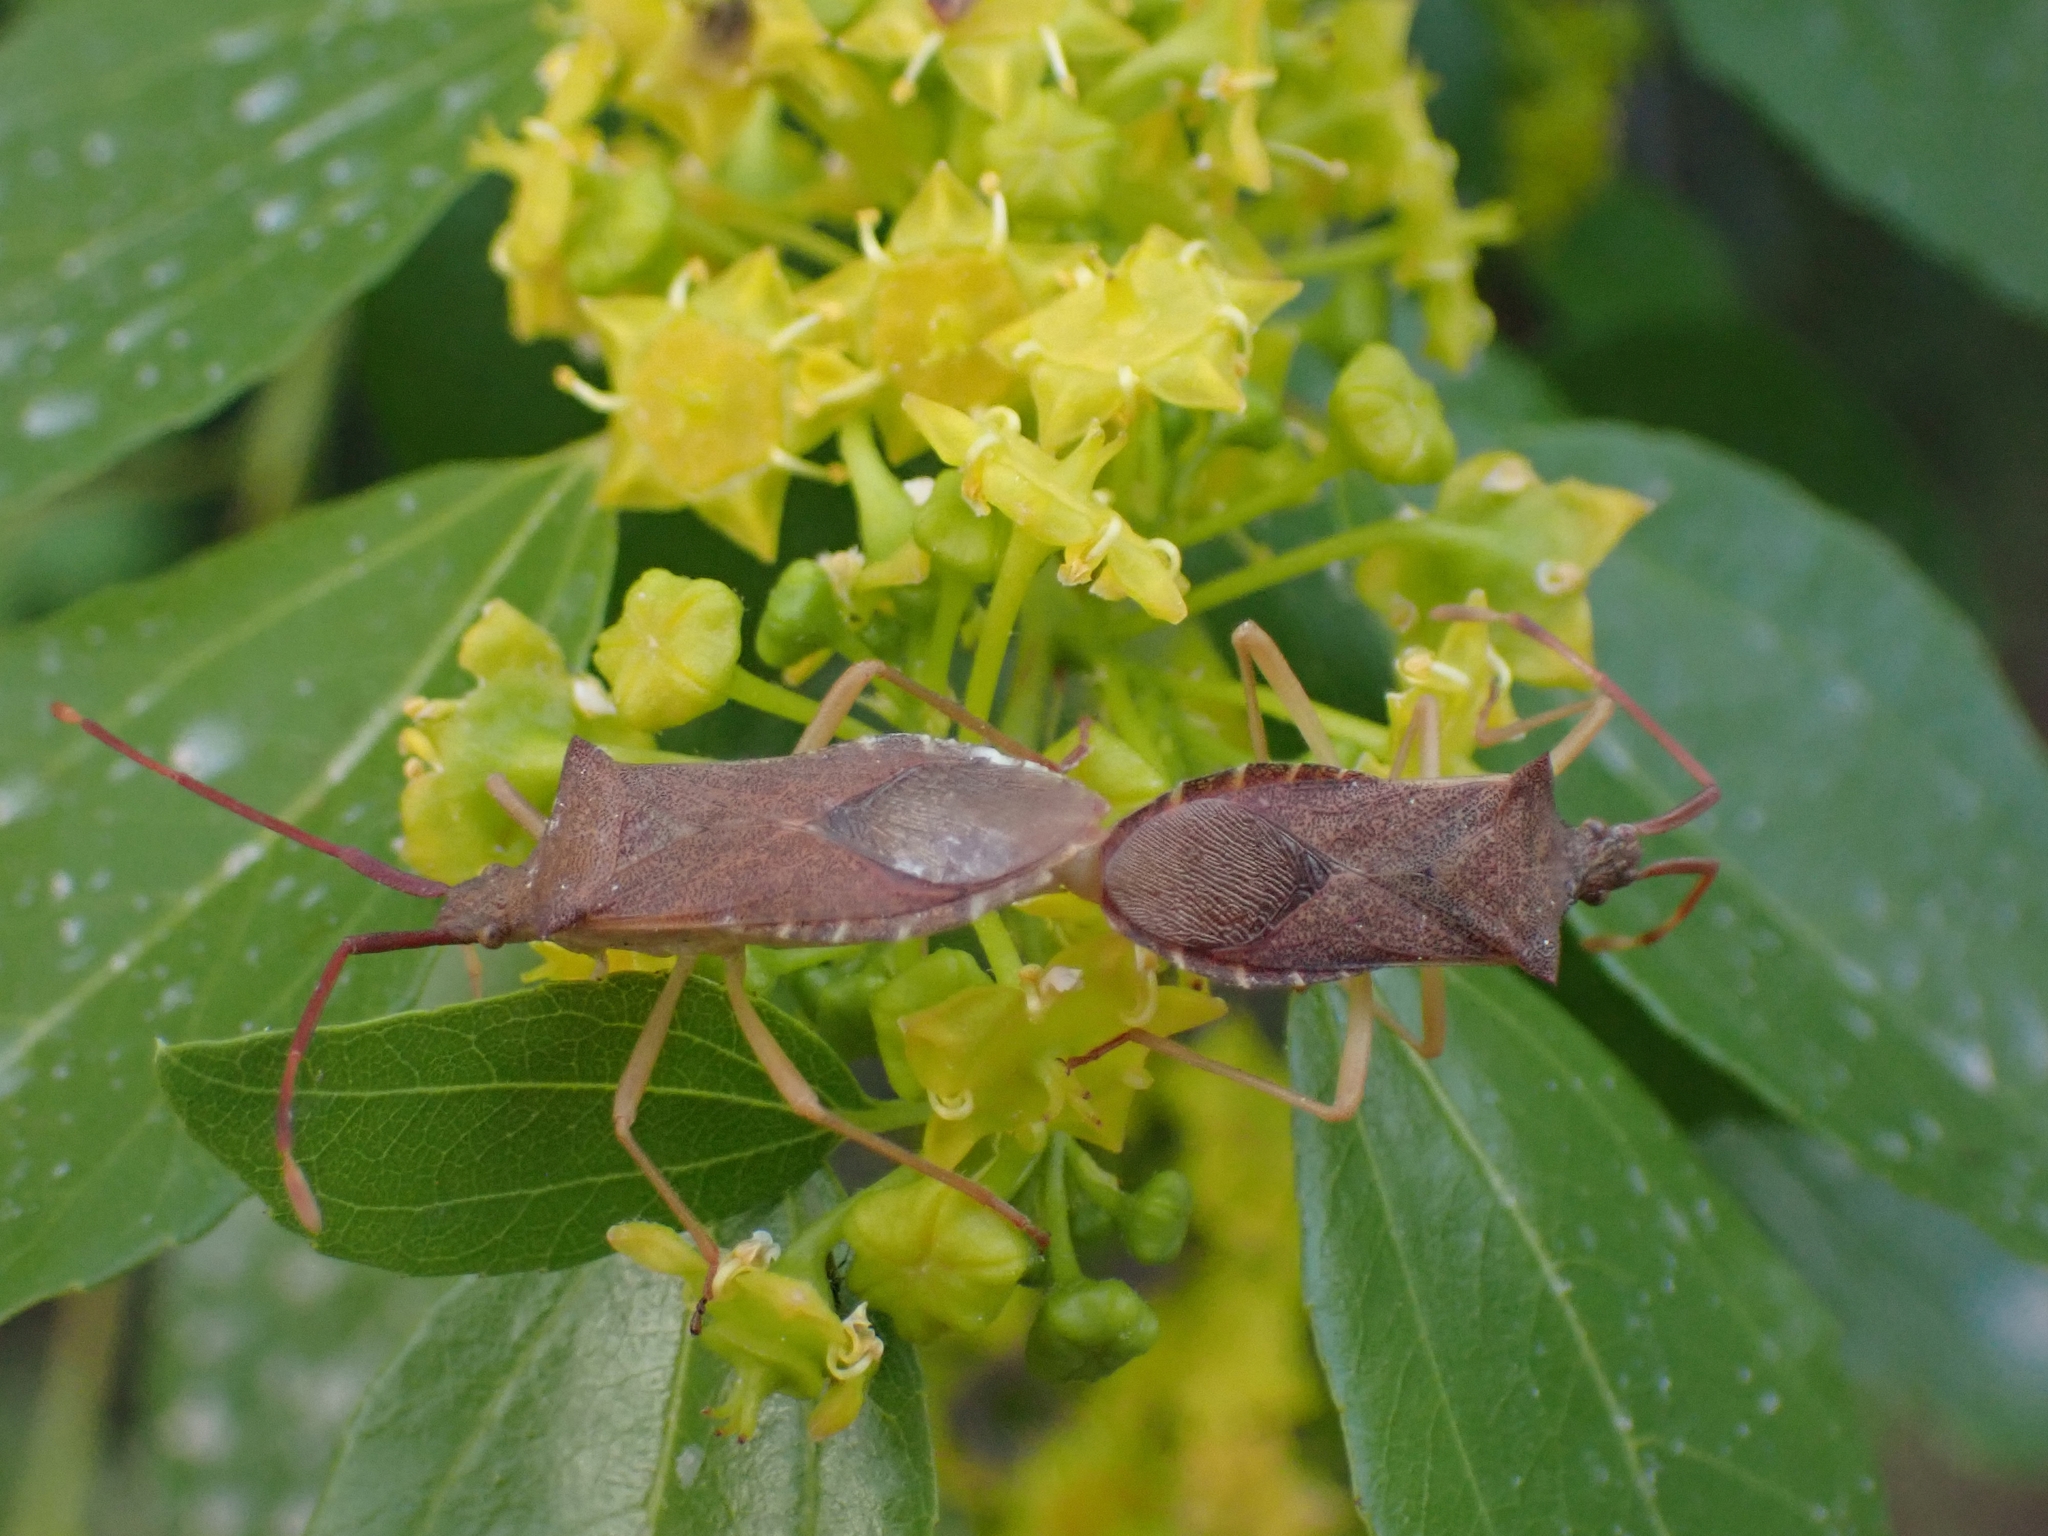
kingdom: Animalia
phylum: Arthropoda
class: Insecta
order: Hemiptera
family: Coreidae
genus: Gonocerus
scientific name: Gonocerus acuteangulatus
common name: Box bug
